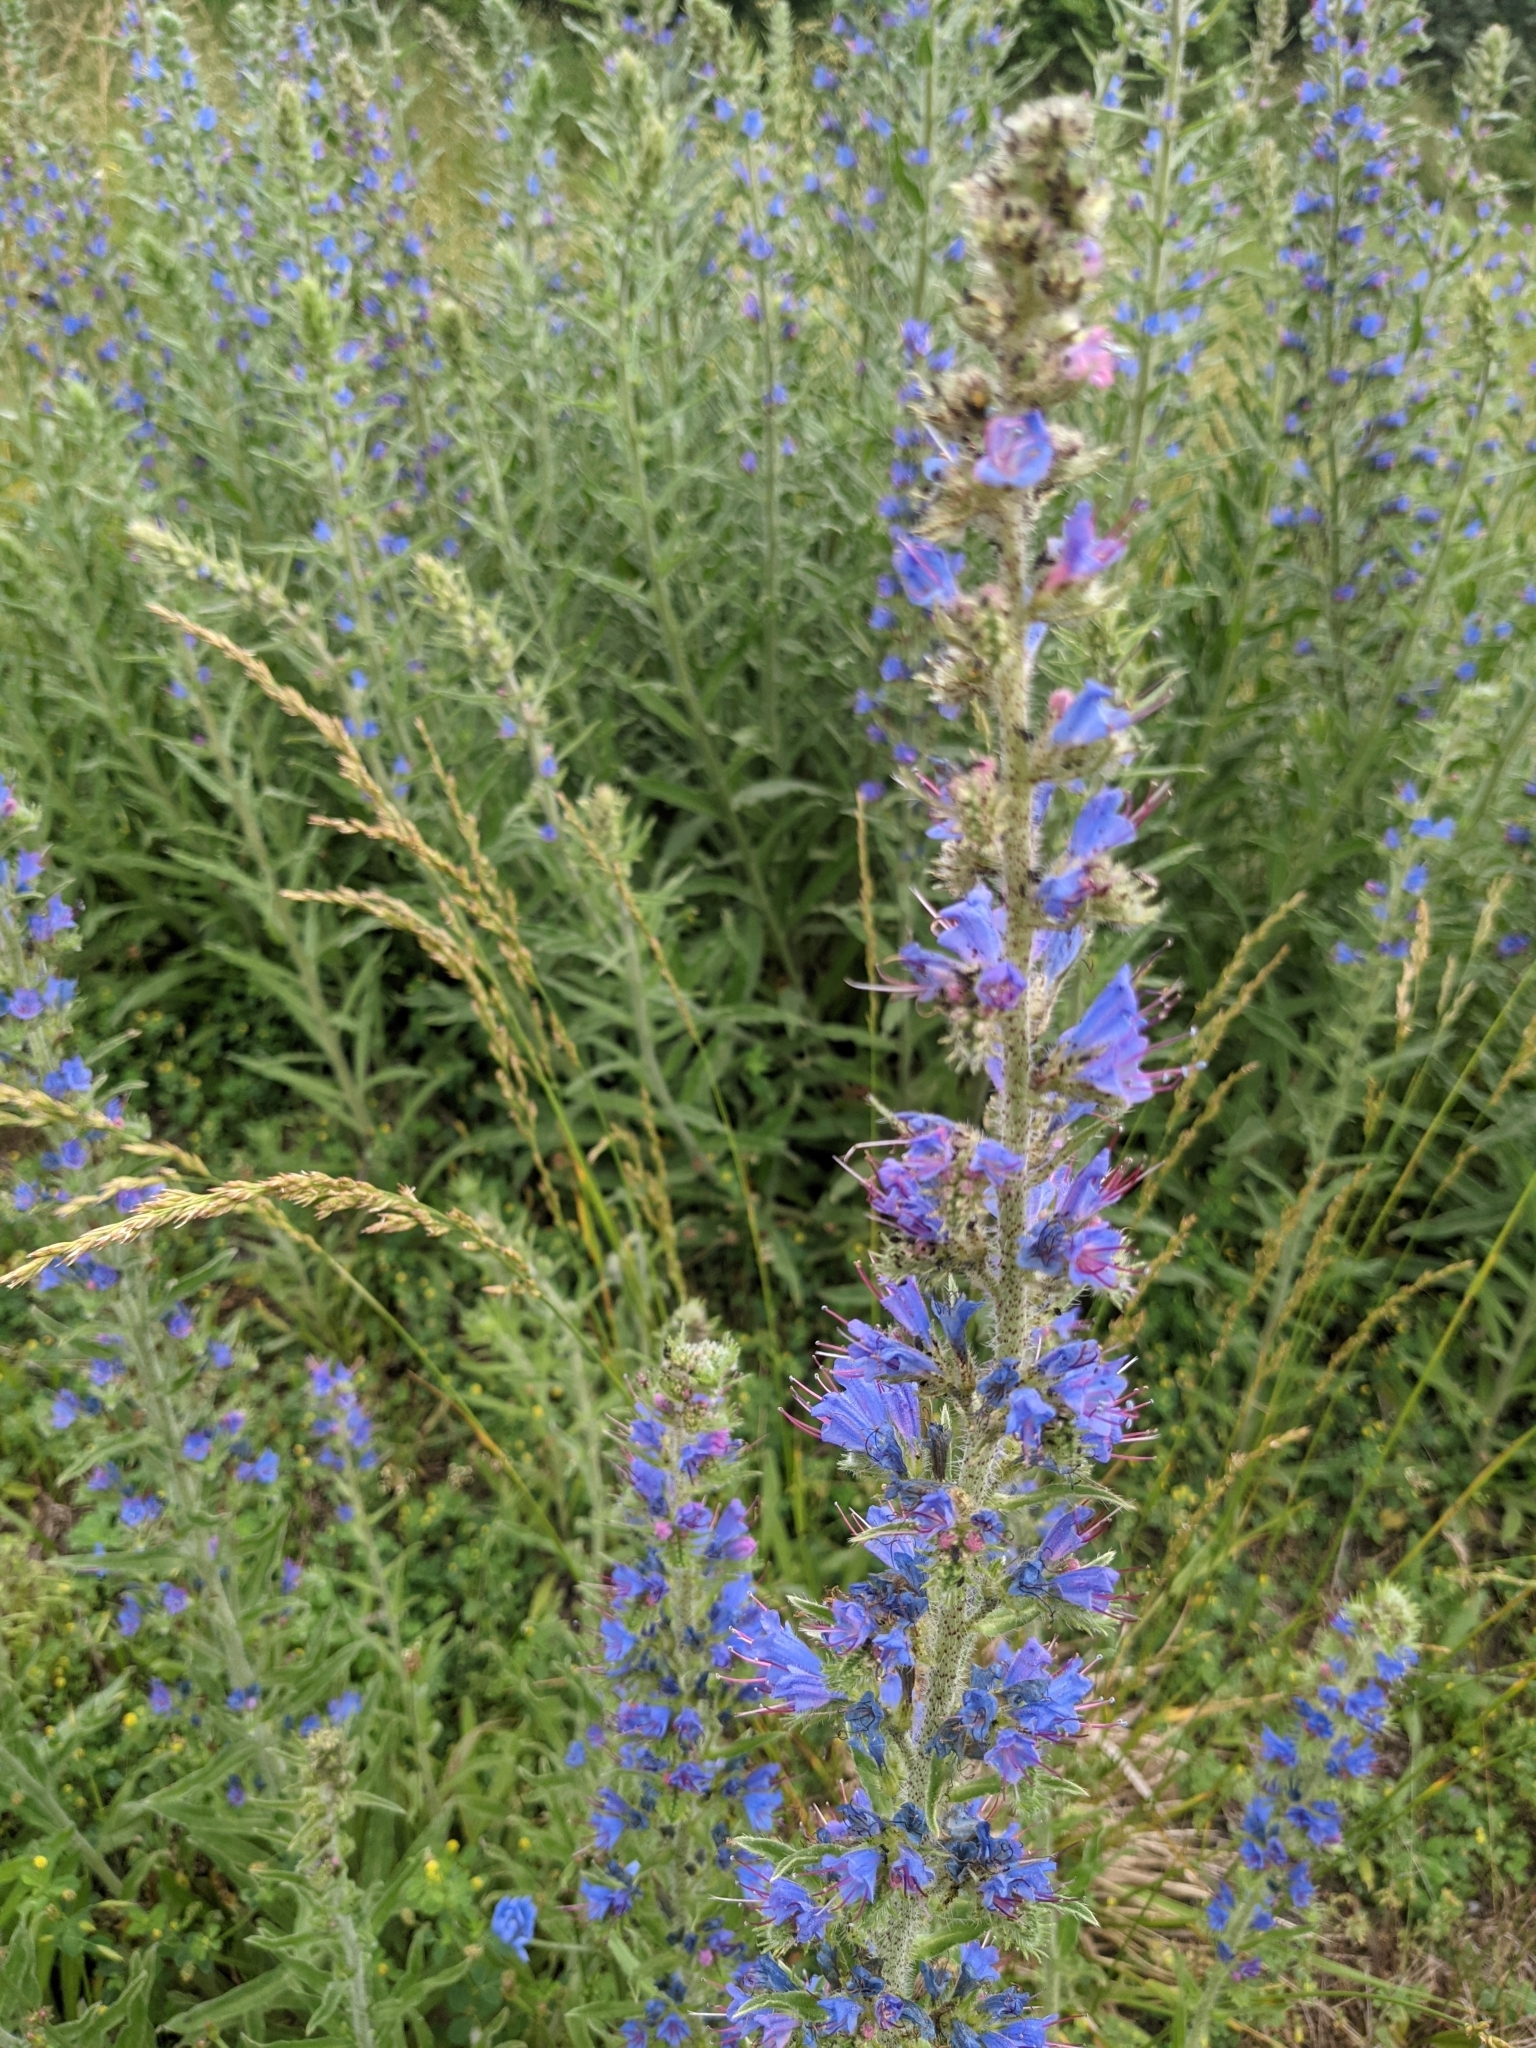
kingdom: Plantae
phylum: Tracheophyta
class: Magnoliopsida
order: Boraginales
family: Boraginaceae
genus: Echium
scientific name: Echium vulgare
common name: Common viper's bugloss
